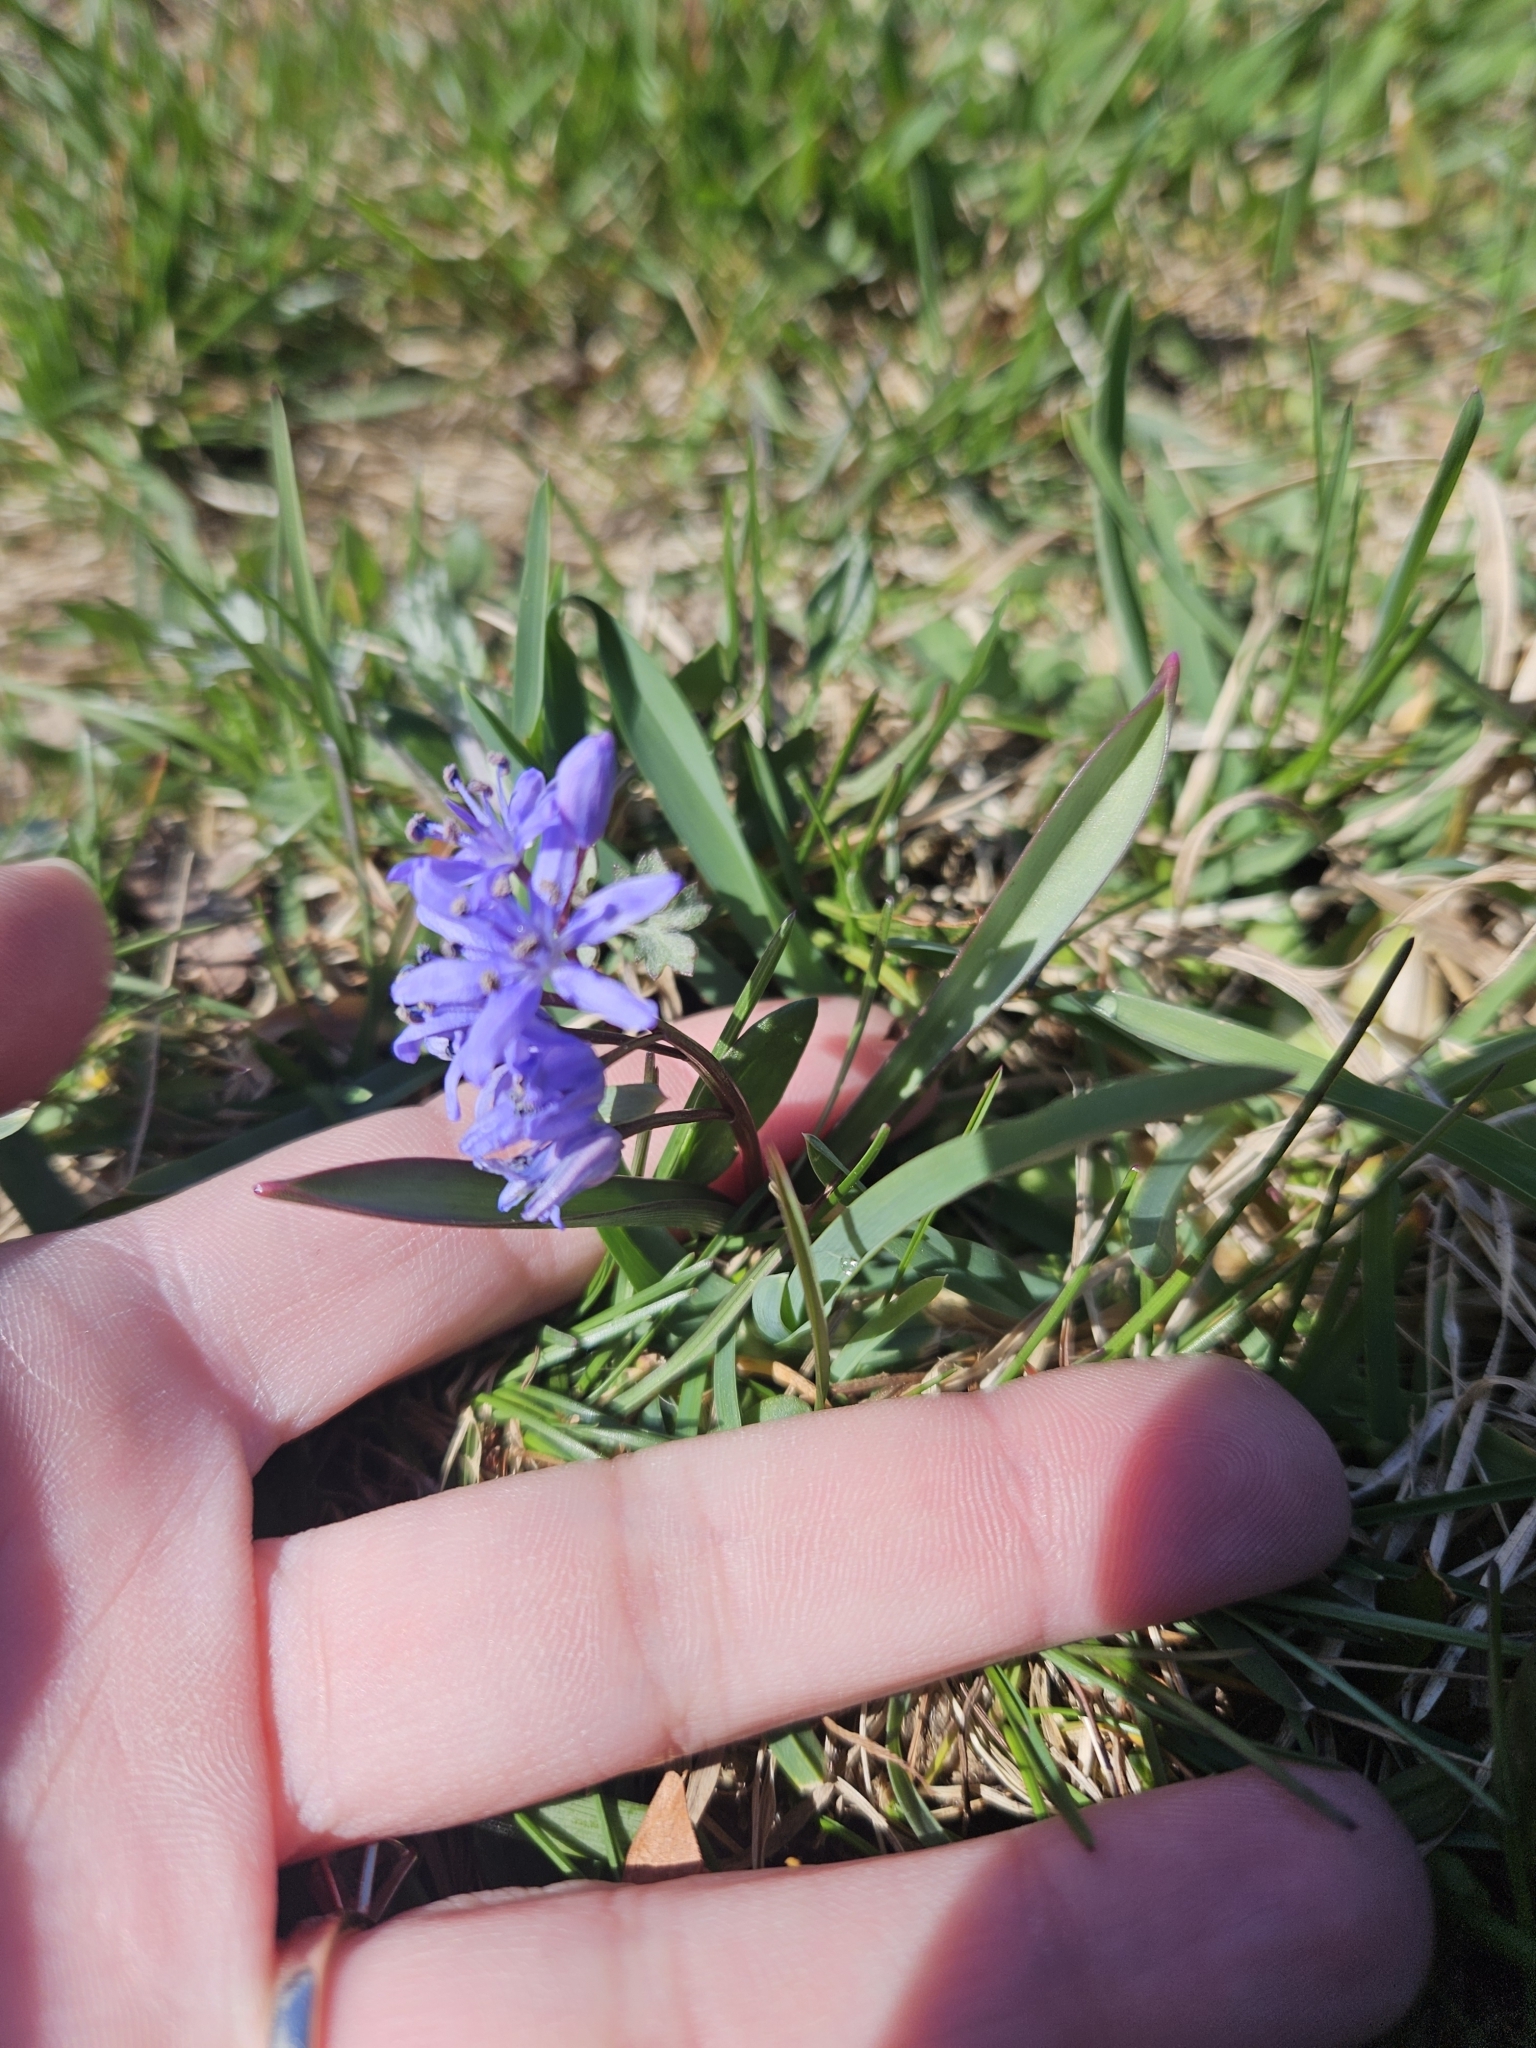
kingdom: Plantae
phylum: Tracheophyta
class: Liliopsida
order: Asparagales
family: Asparagaceae
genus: Scilla
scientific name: Scilla siberica
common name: Siberian squill
